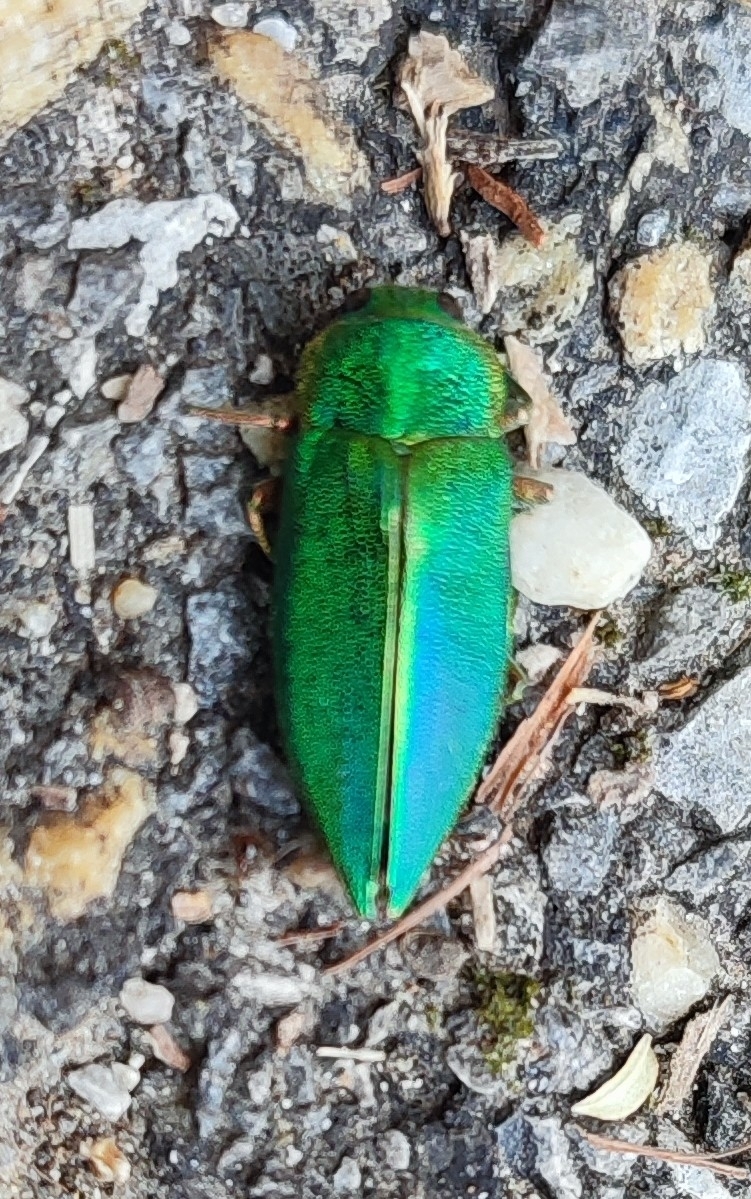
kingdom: Animalia
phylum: Arthropoda
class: Insecta
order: Coleoptera
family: Buprestidae
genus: Latipalpis
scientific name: Latipalpis plana
